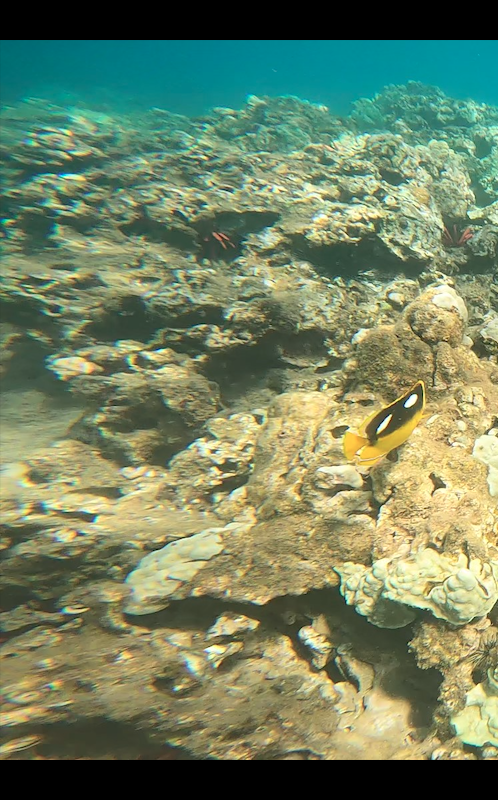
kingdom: Animalia
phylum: Chordata
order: Perciformes
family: Chaetodontidae
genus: Chaetodon
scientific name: Chaetodon quadrimaculatus
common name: Fourspot butterflyfish
